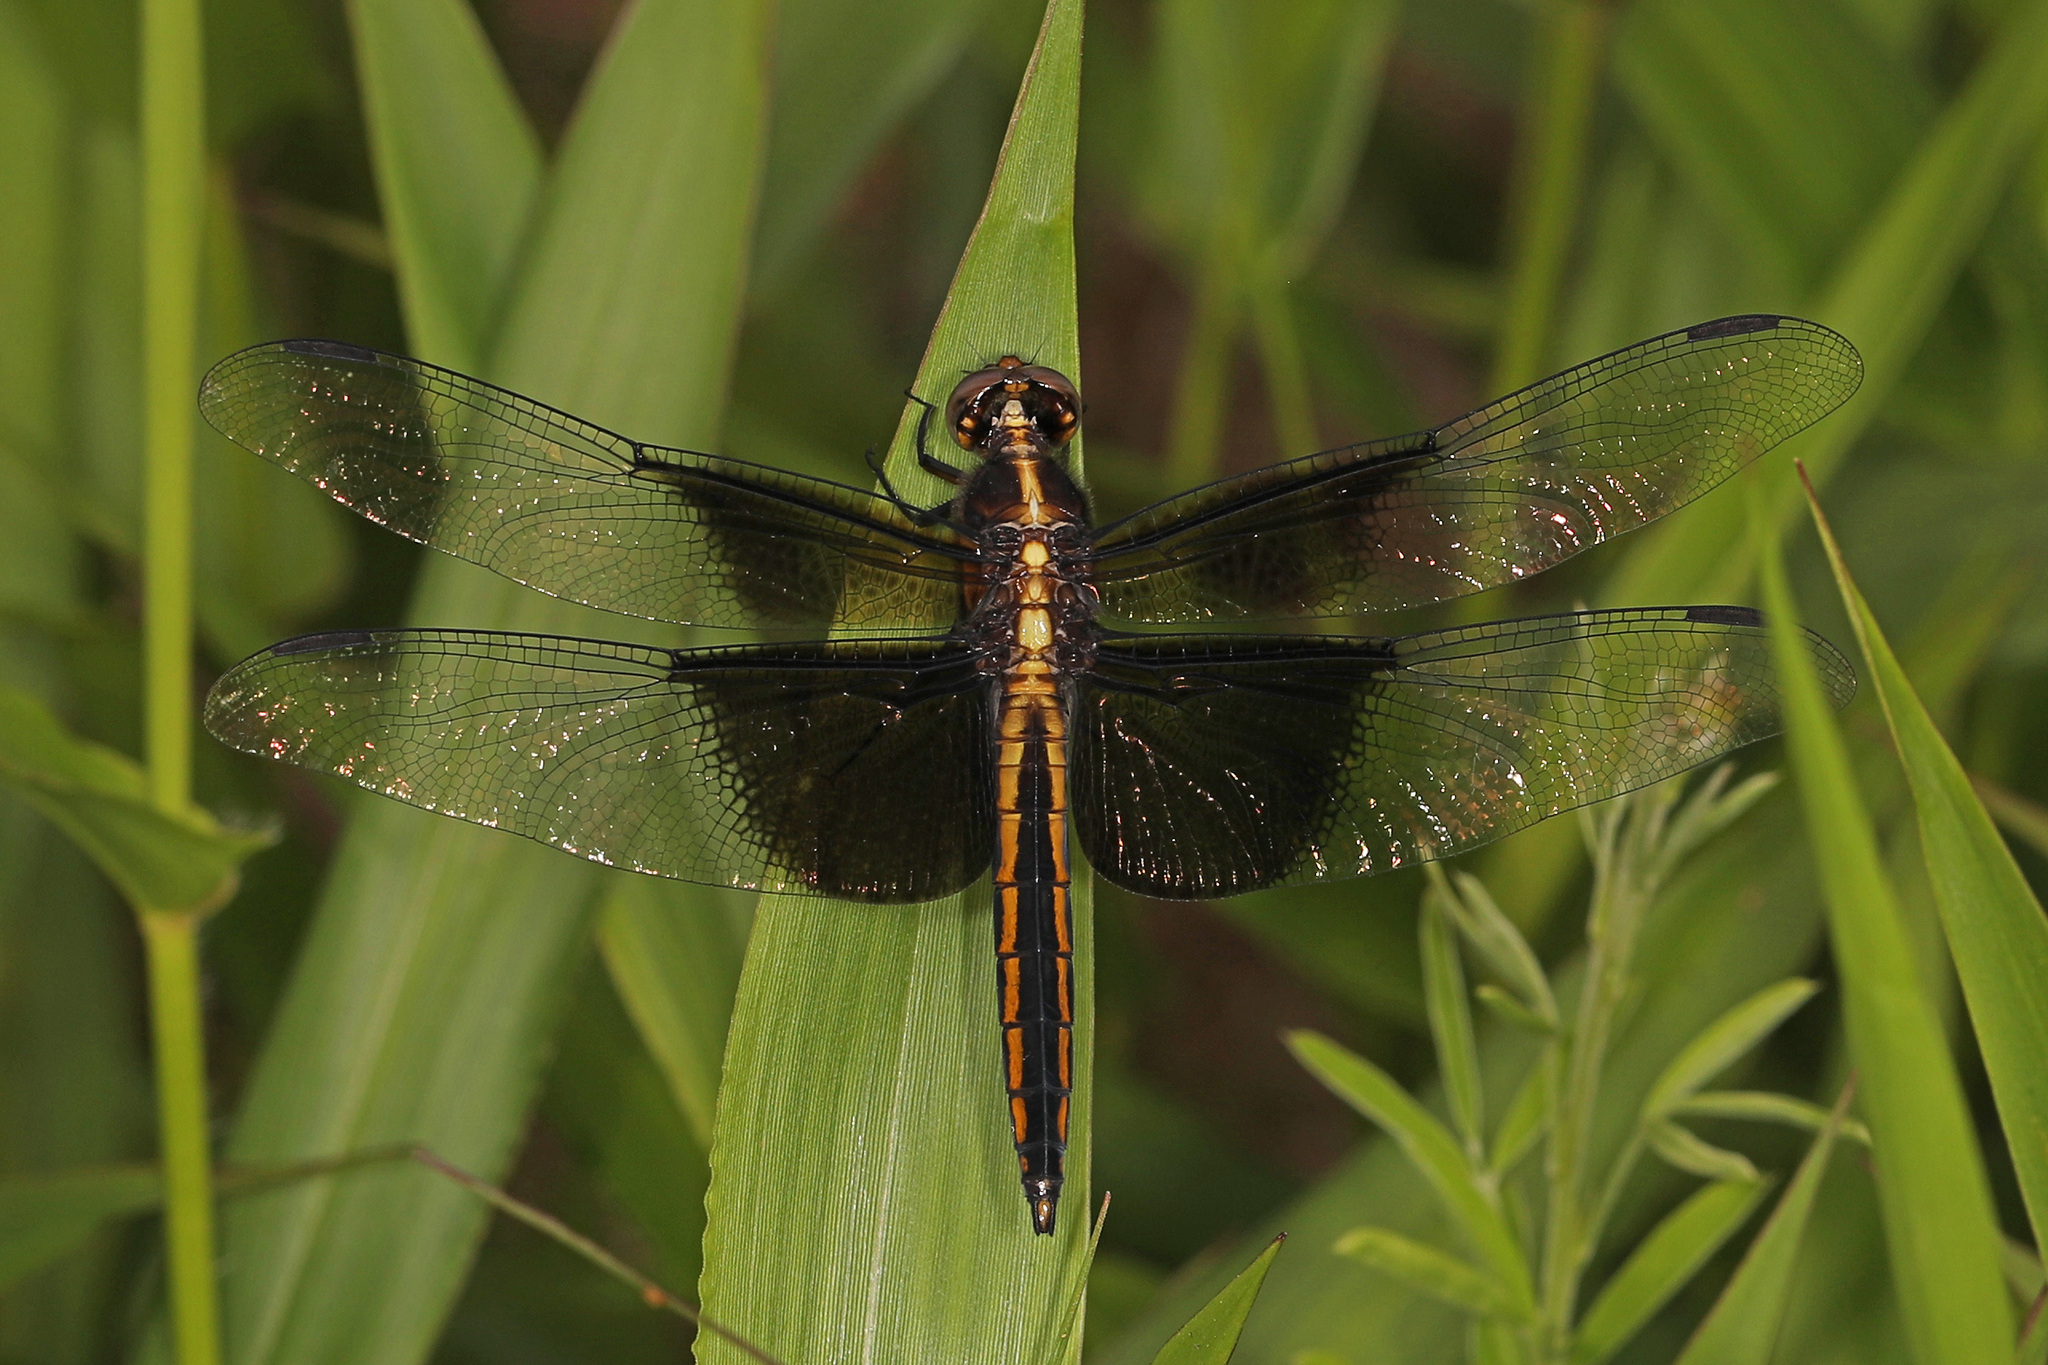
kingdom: Animalia
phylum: Arthropoda
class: Insecta
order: Odonata
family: Libellulidae
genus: Libellula
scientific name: Libellula luctuosa
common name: Widow skimmer
